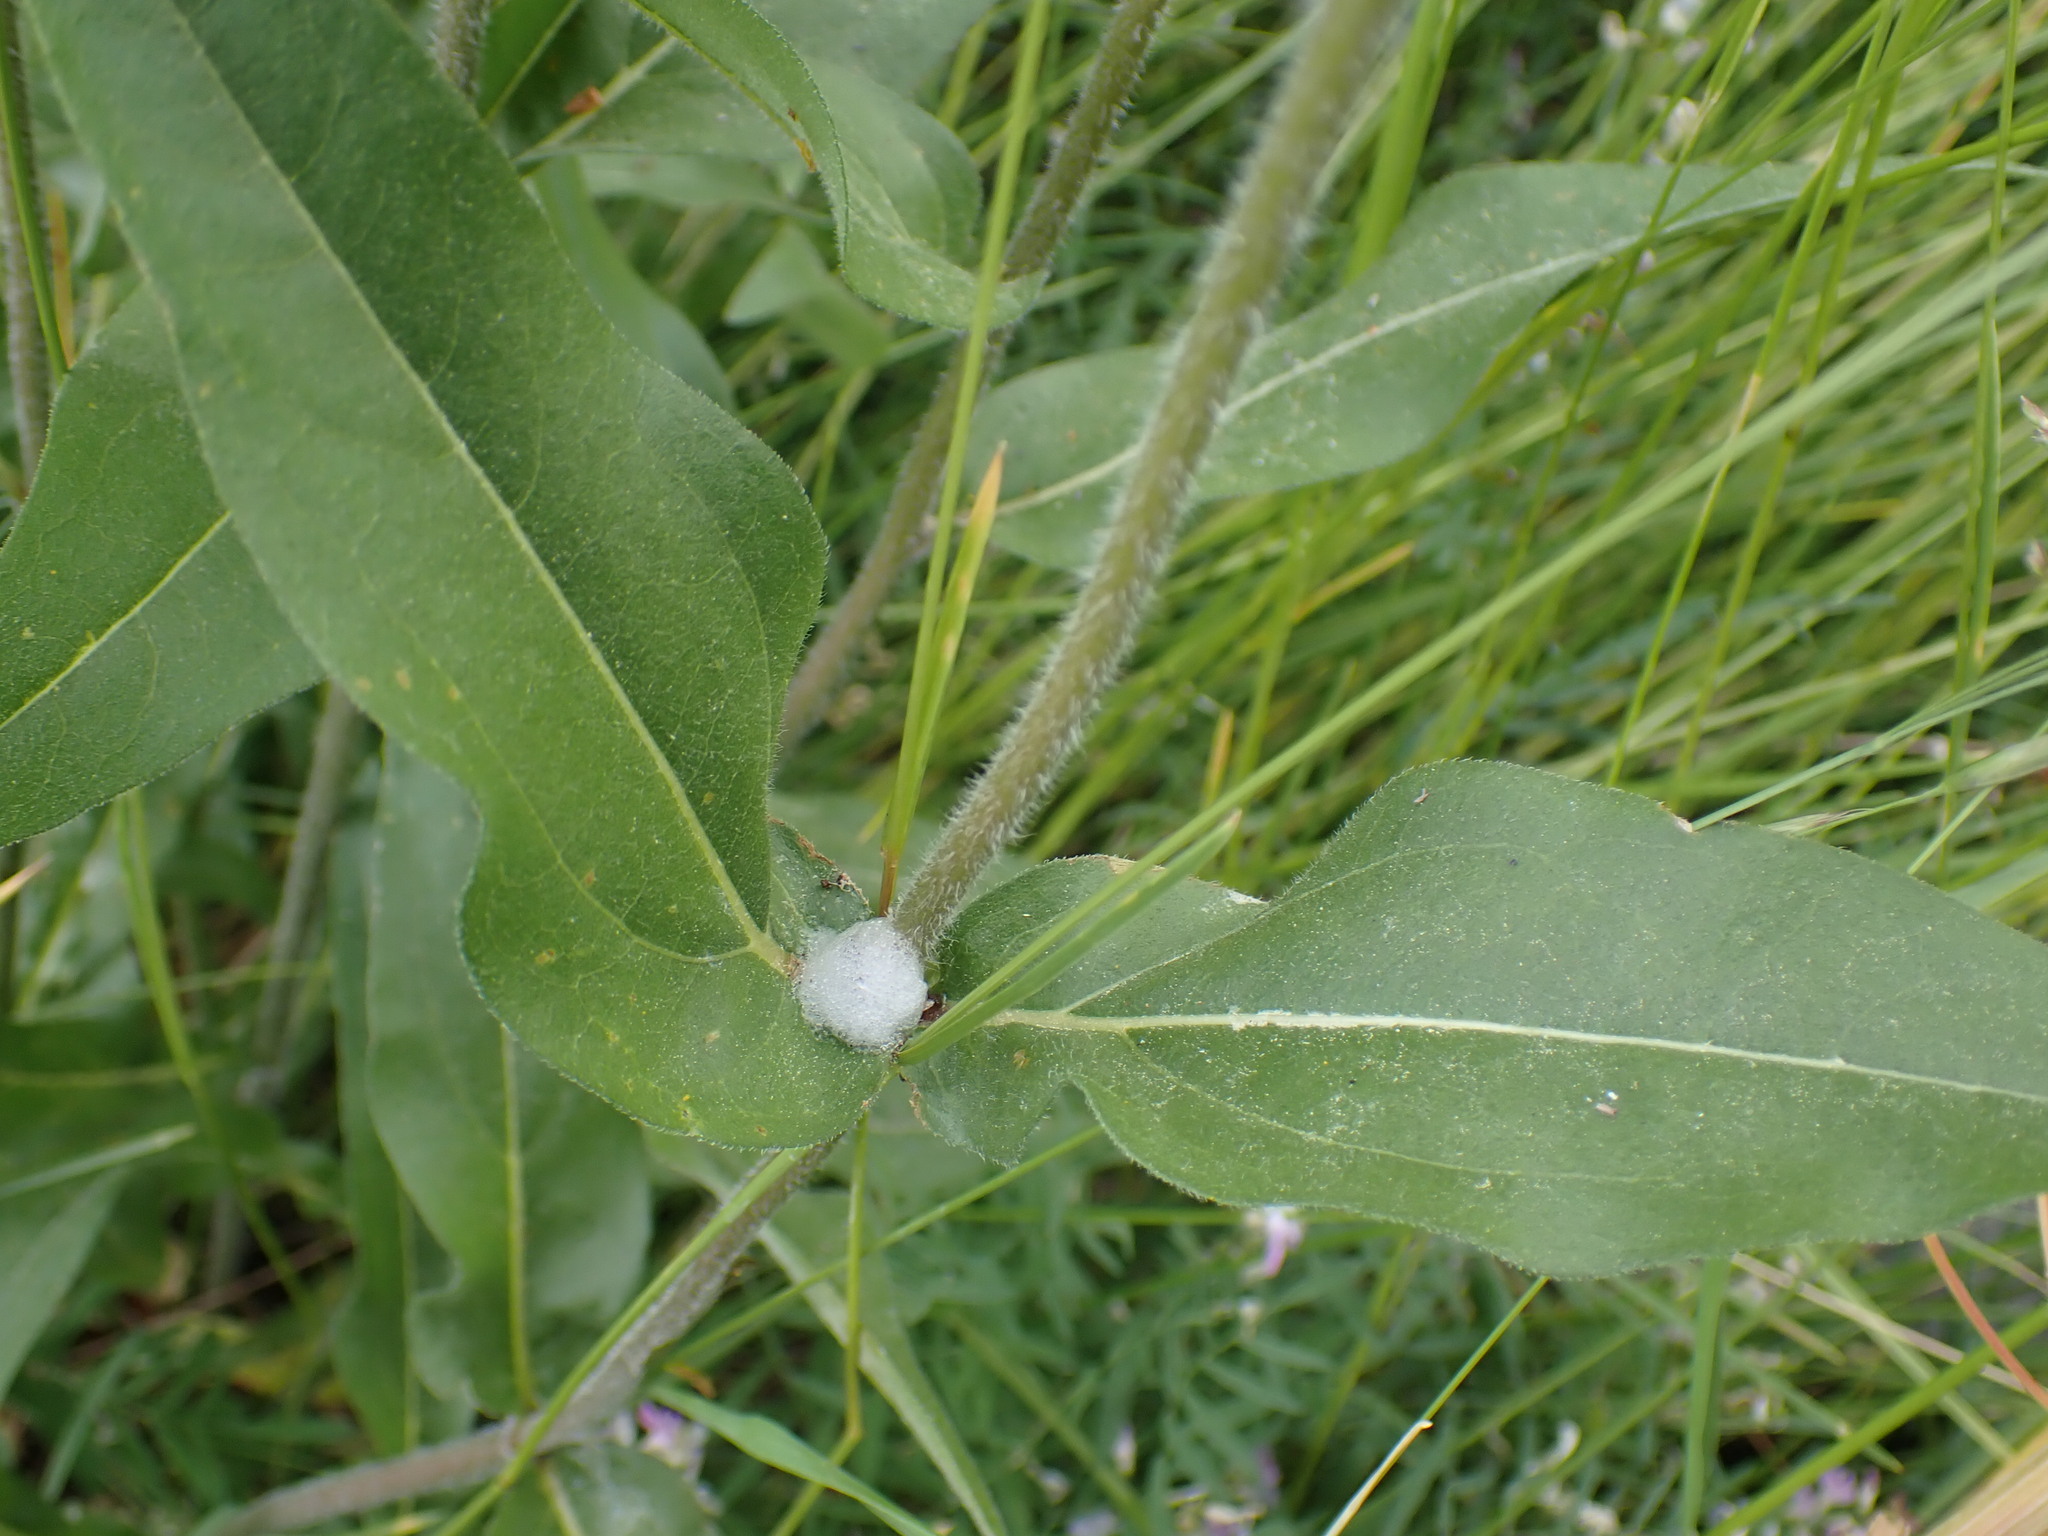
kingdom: Plantae
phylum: Tracheophyta
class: Magnoliopsida
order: Asterales
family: Asteraceae
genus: Helianthella
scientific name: Helianthella uniflora
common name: Rocky mountain dwarf sunflower
